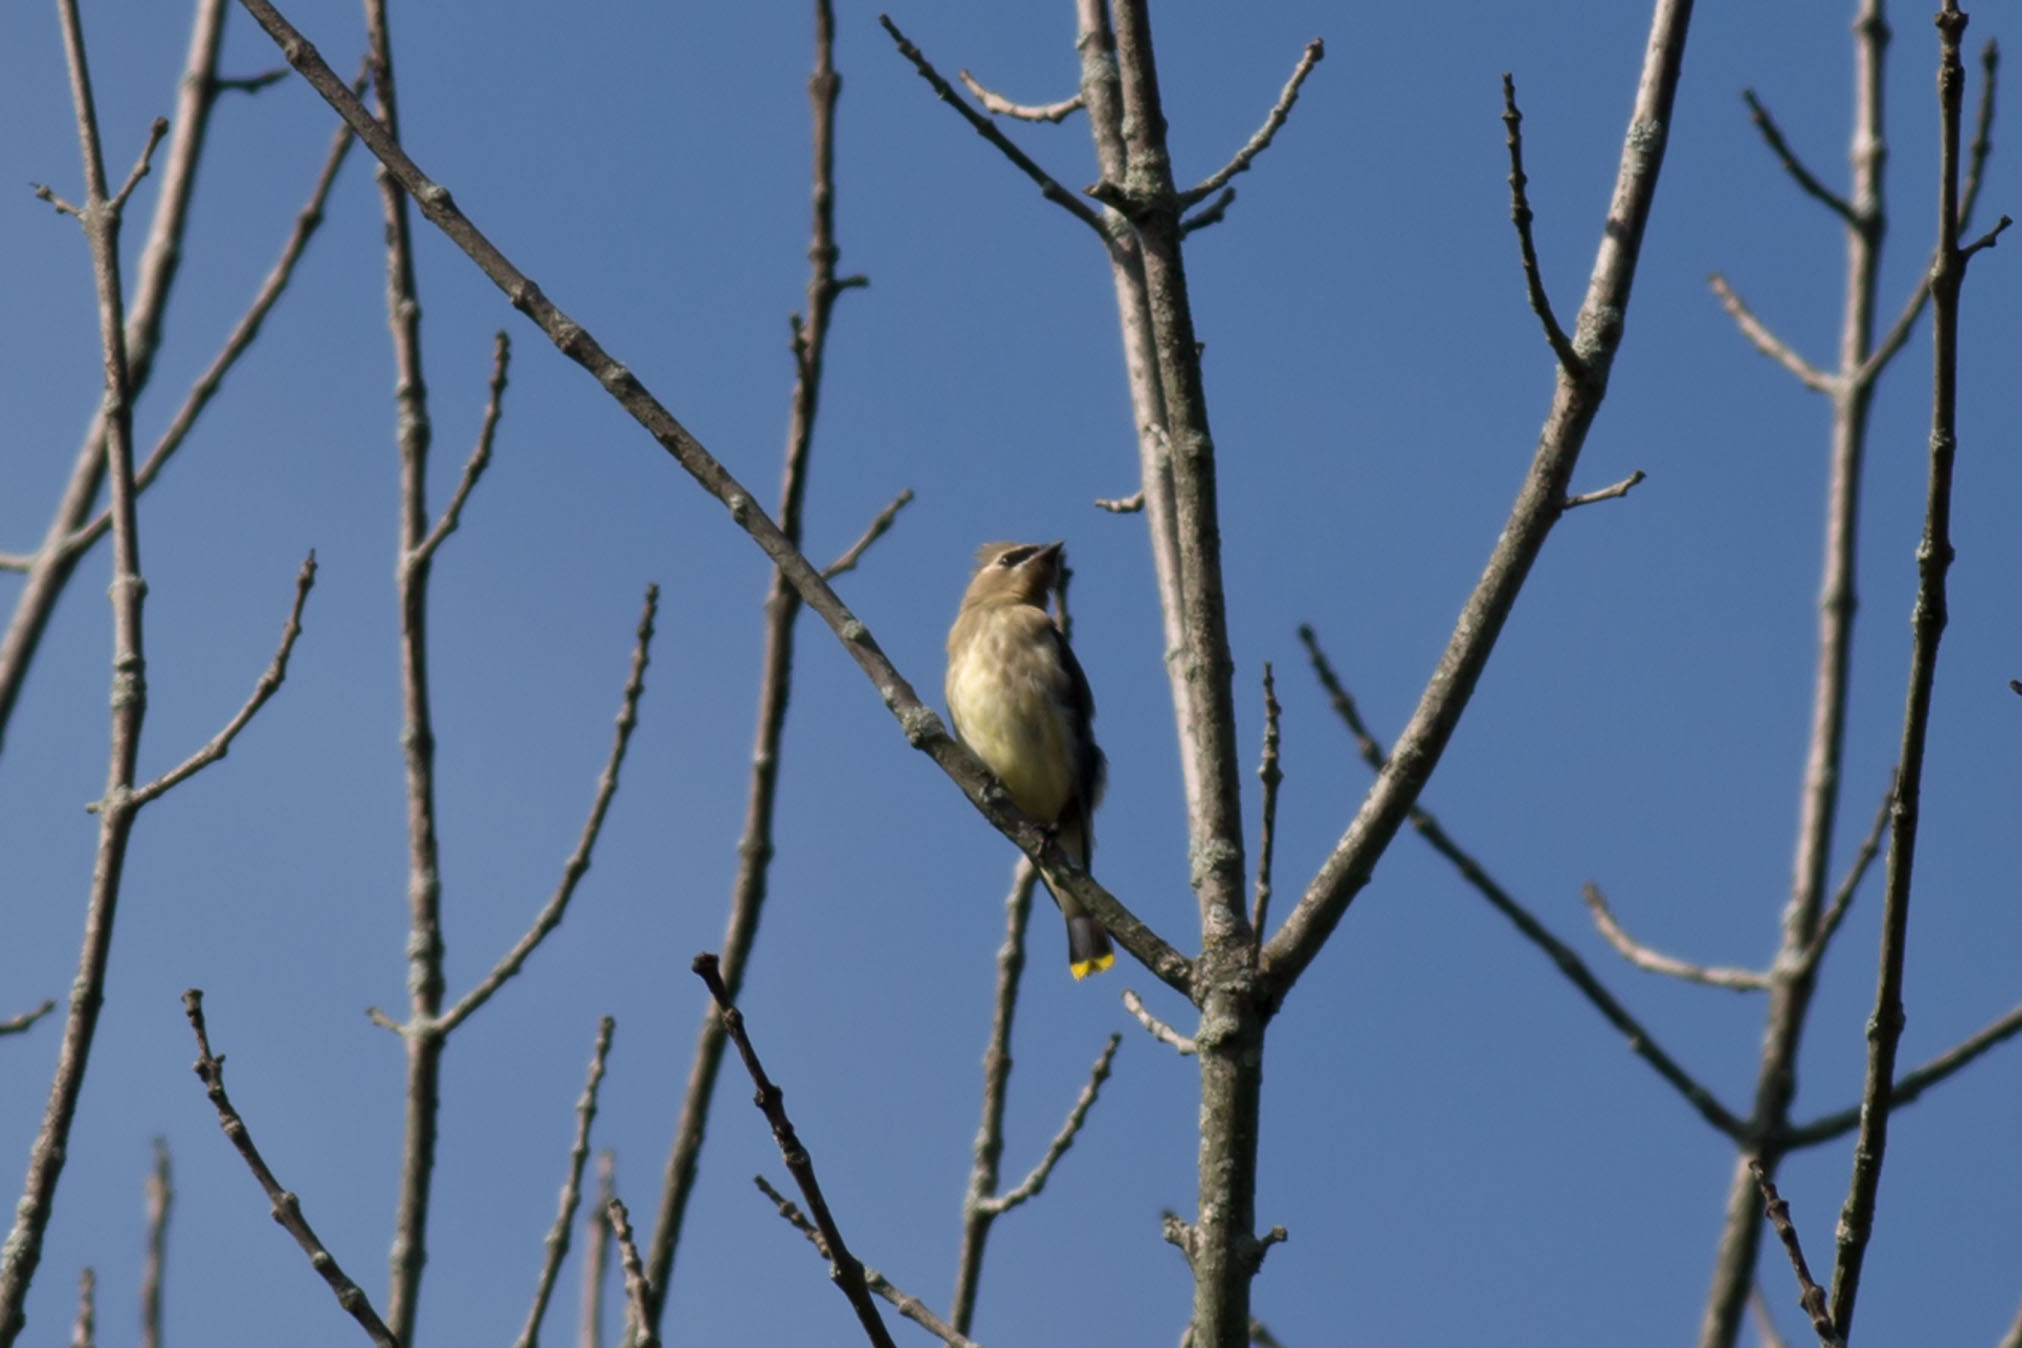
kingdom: Animalia
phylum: Chordata
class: Aves
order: Passeriformes
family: Bombycillidae
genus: Bombycilla
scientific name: Bombycilla cedrorum
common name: Cedar waxwing
